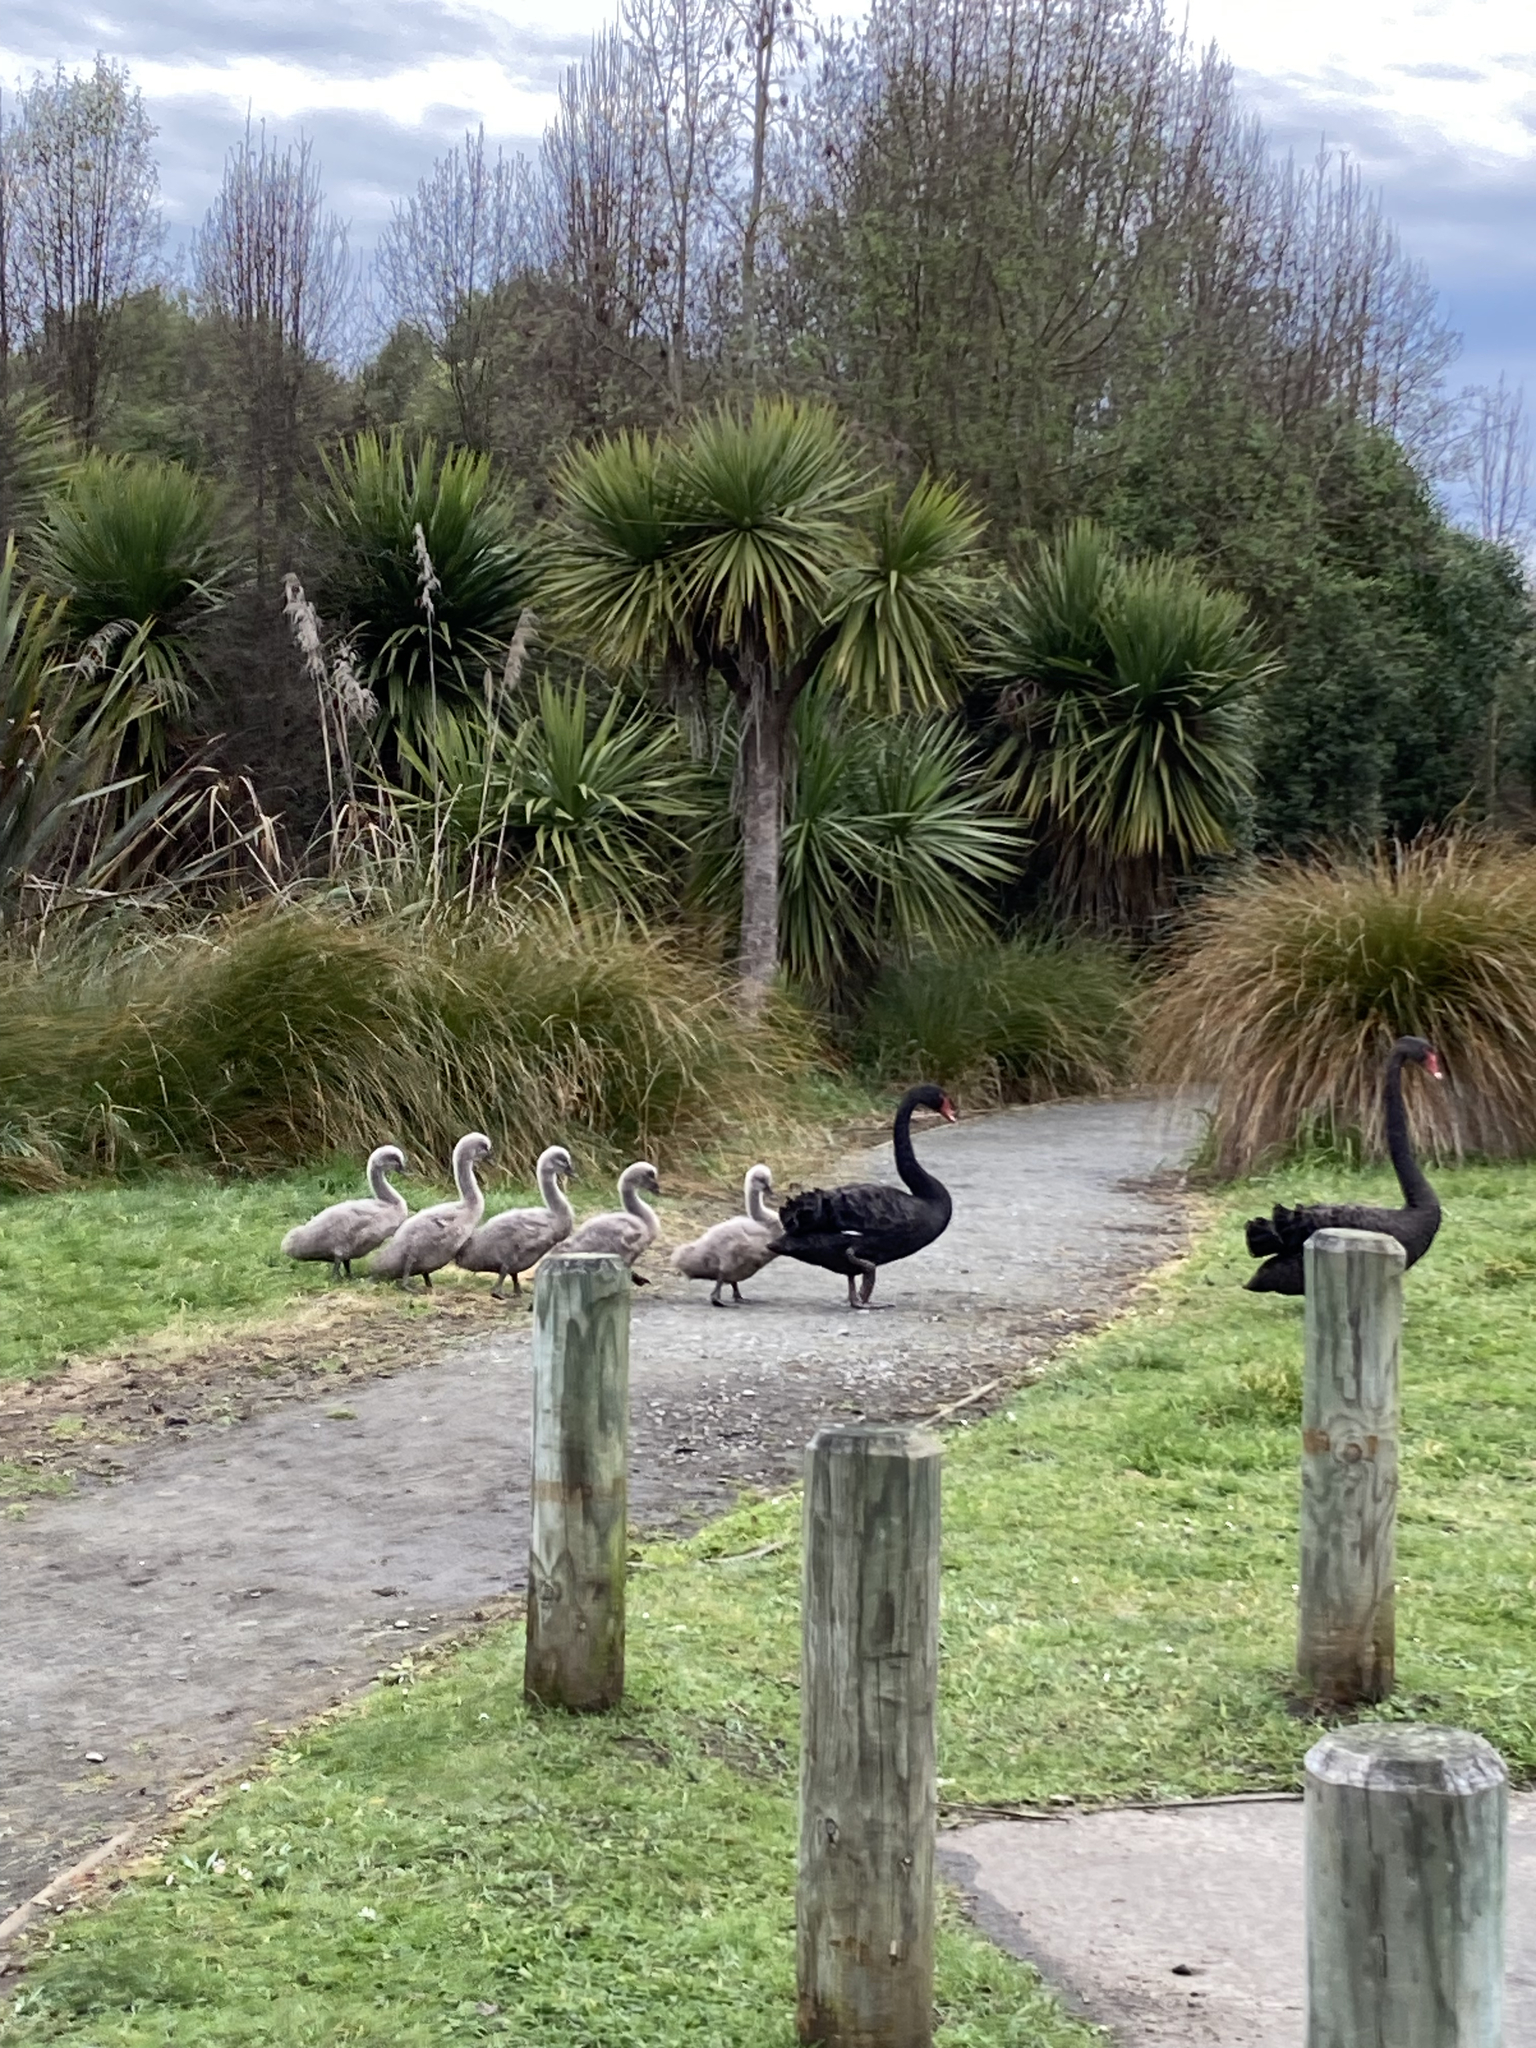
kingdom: Animalia
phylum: Chordata
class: Aves
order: Anseriformes
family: Anatidae
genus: Cygnus
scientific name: Cygnus atratus
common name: Black swan
